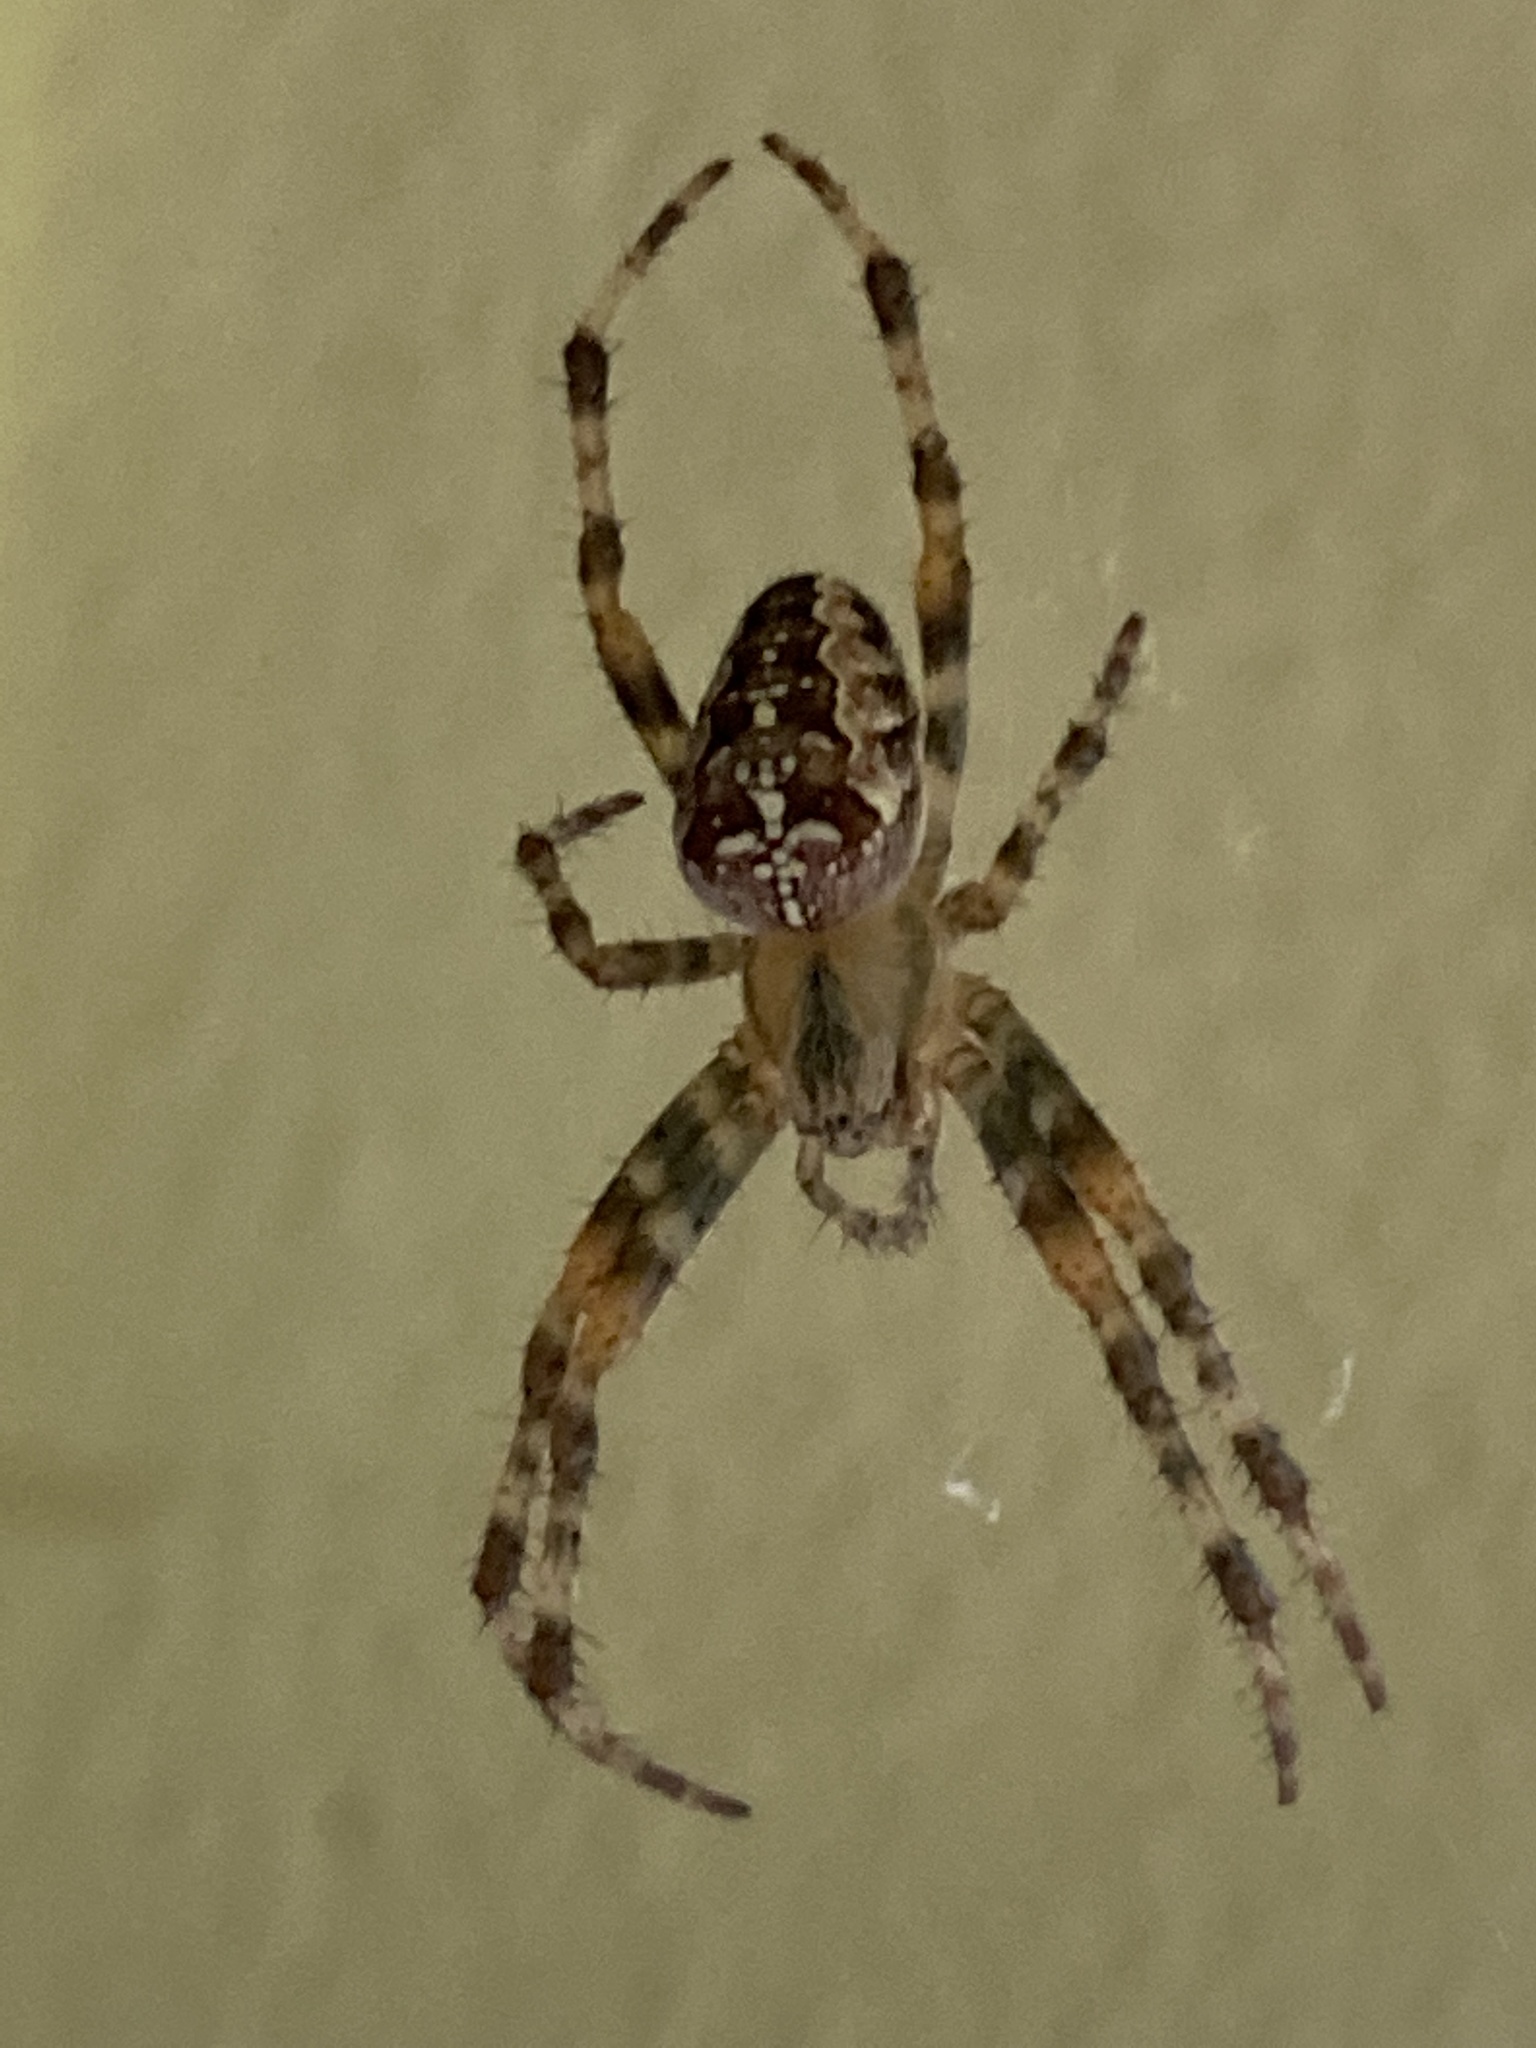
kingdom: Animalia
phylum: Arthropoda
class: Arachnida
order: Araneae
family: Araneidae
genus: Araneus
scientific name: Araneus diadematus
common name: Cross orbweaver
